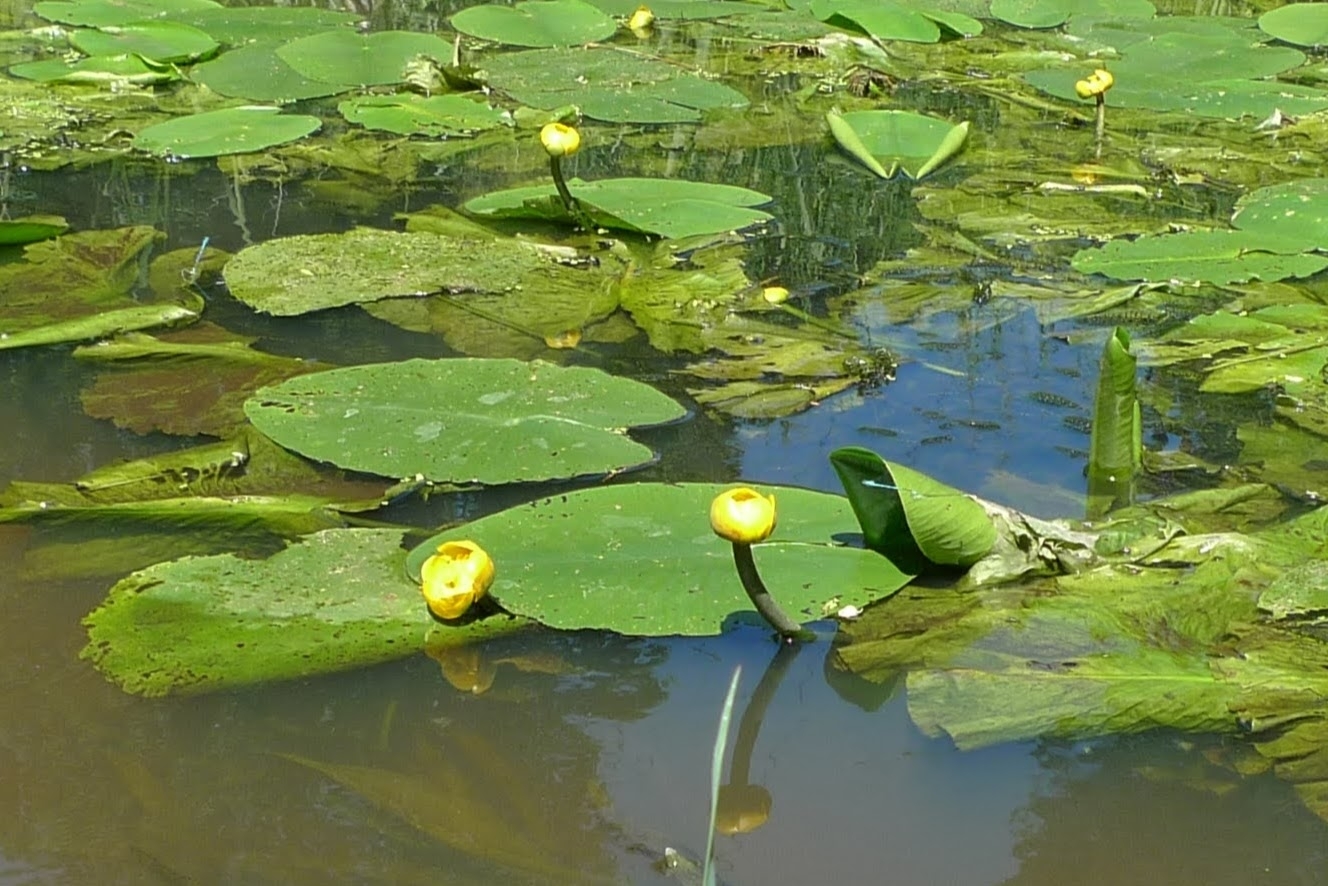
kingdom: Plantae
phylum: Tracheophyta
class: Magnoliopsida
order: Nymphaeales
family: Nymphaeaceae
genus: Nuphar
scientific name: Nuphar lutea
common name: Yellow water-lily
